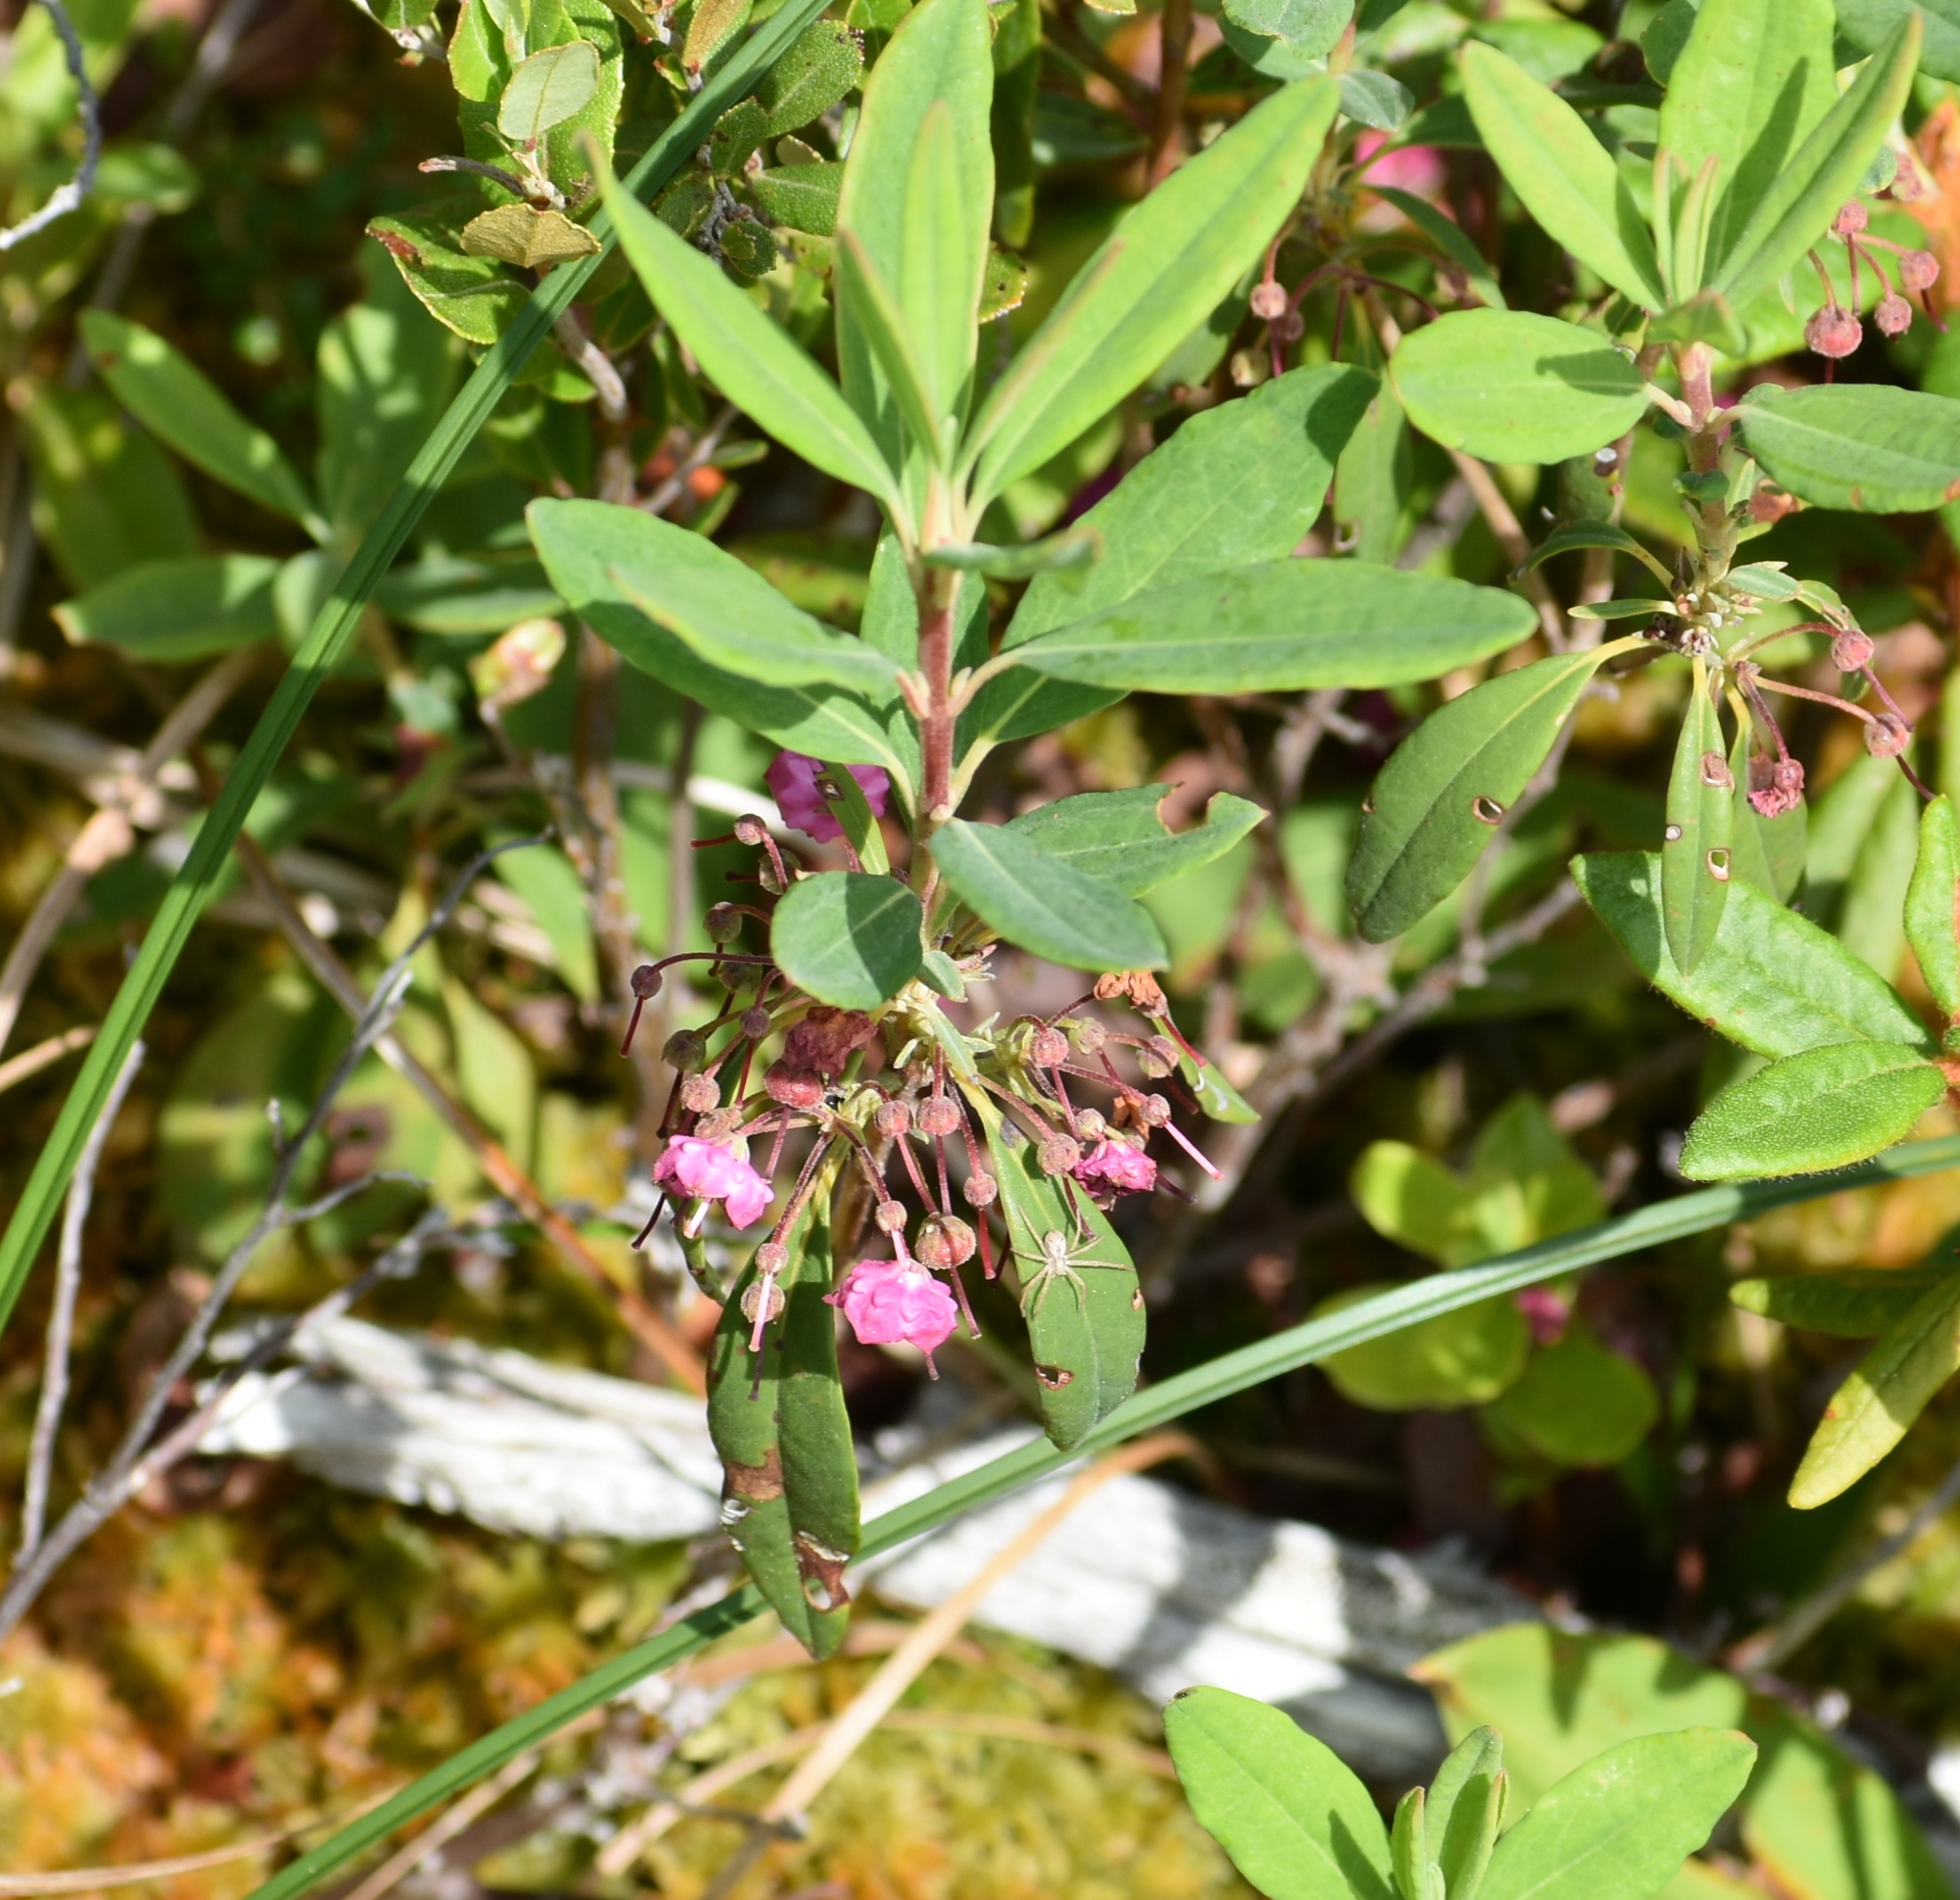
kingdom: Plantae
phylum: Tracheophyta
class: Magnoliopsida
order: Ericales
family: Ericaceae
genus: Kalmia
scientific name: Kalmia angustifolia
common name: Sheep-laurel
